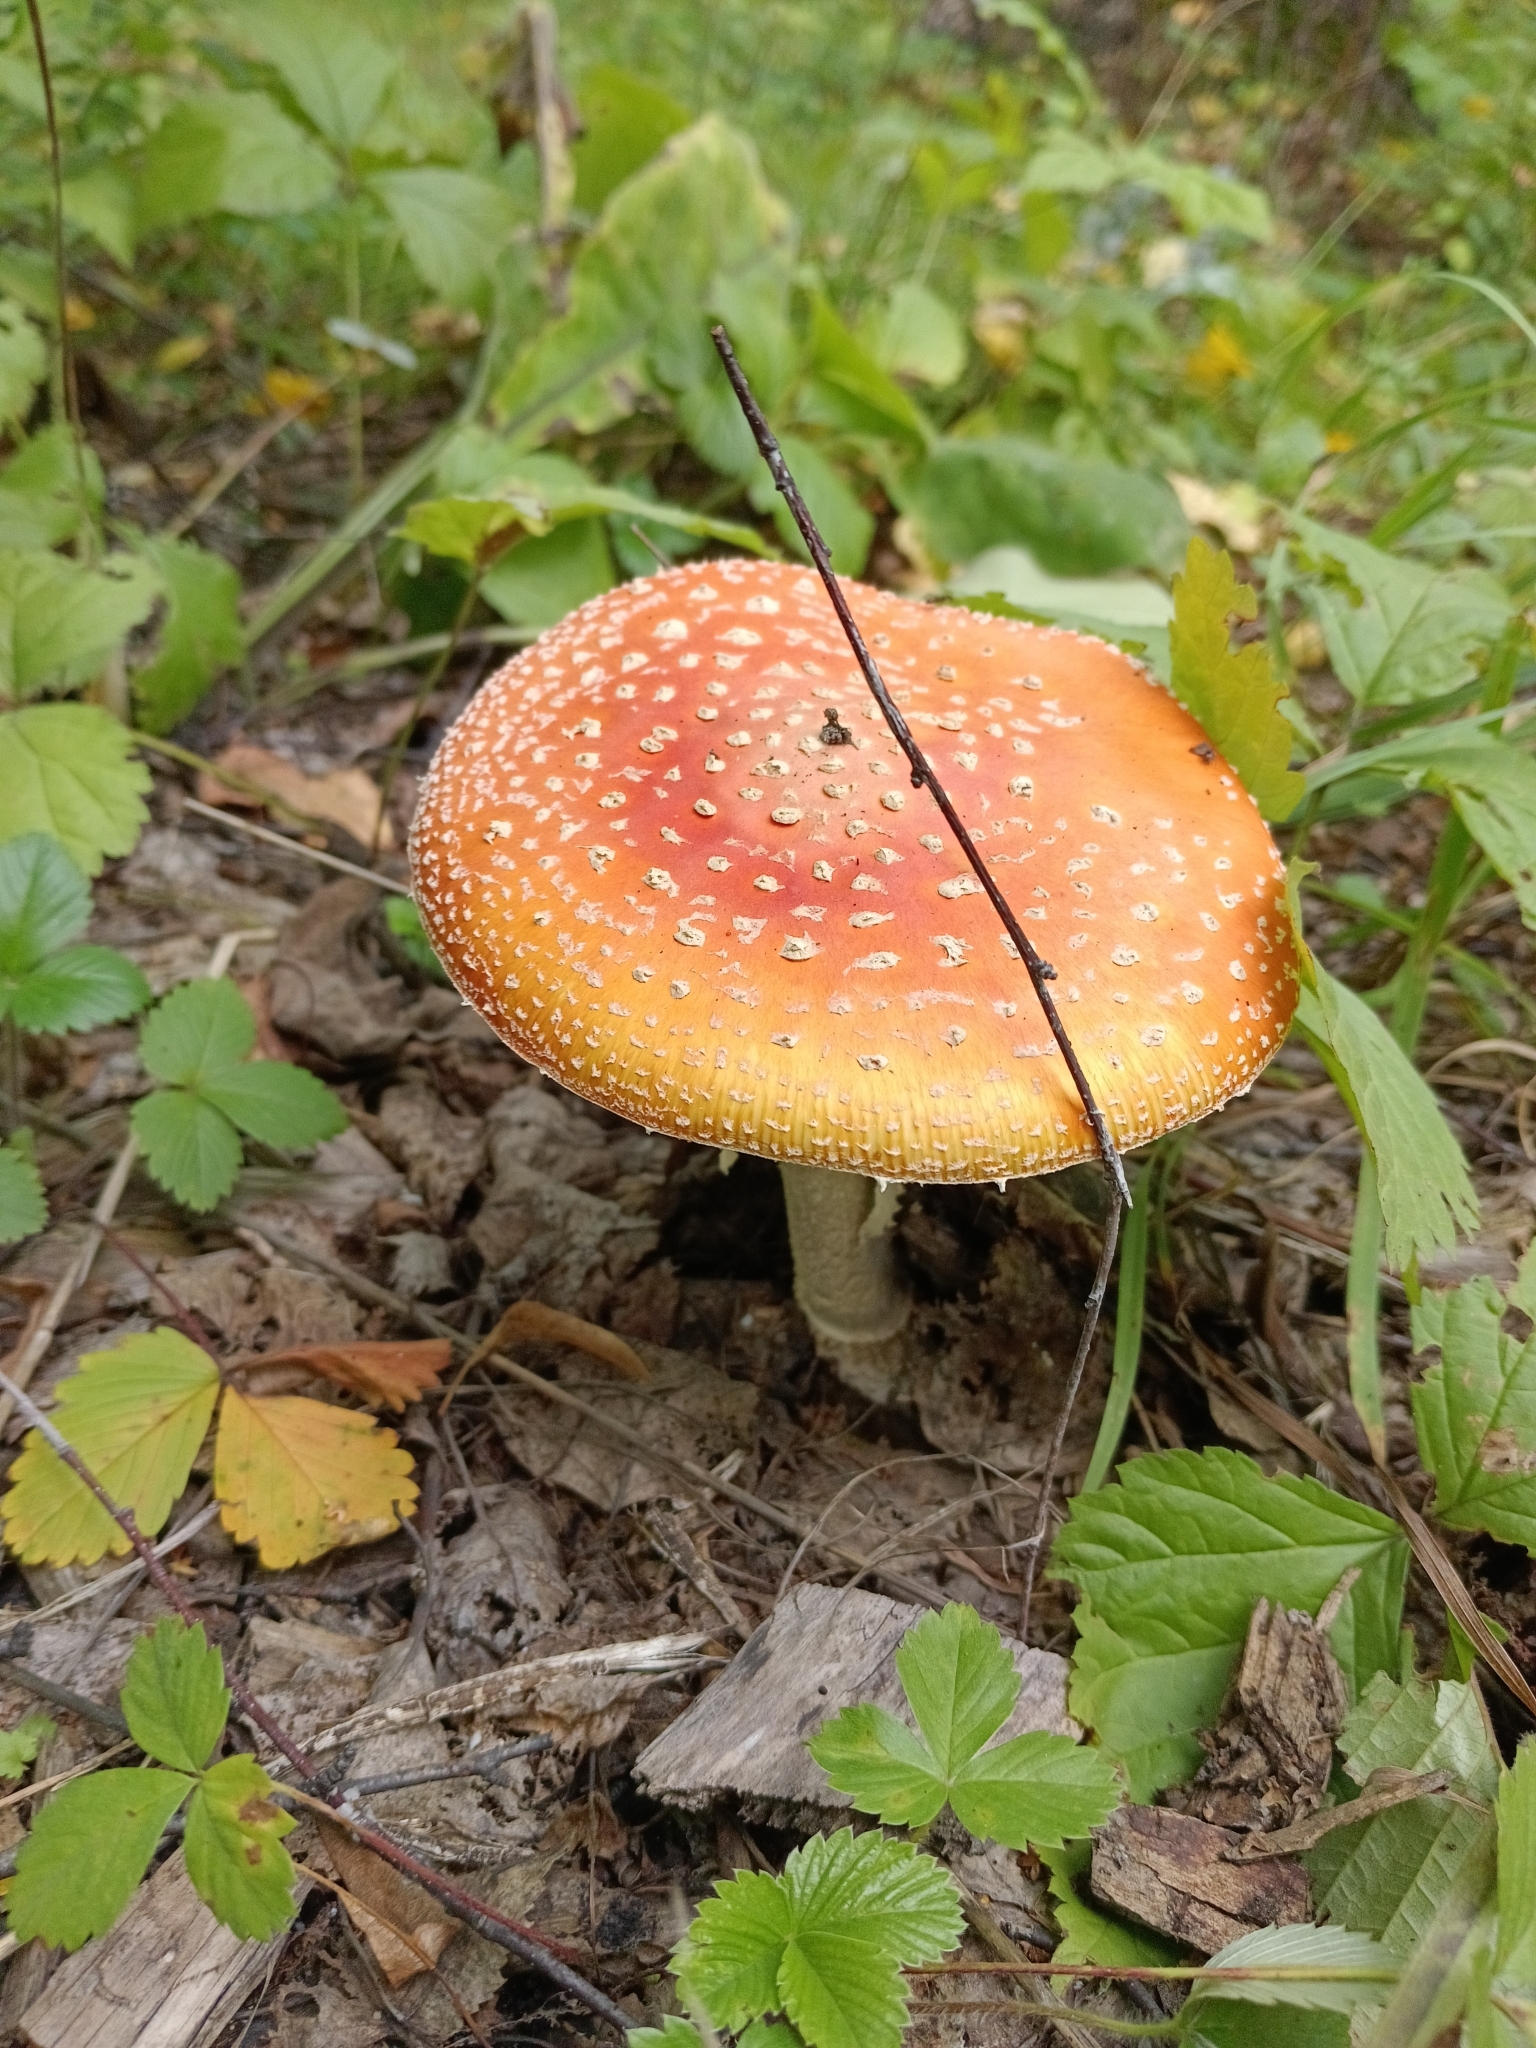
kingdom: Fungi
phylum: Basidiomycota
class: Agaricomycetes
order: Agaricales
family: Amanitaceae
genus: Amanita
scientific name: Amanita muscaria
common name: Fly agaric
